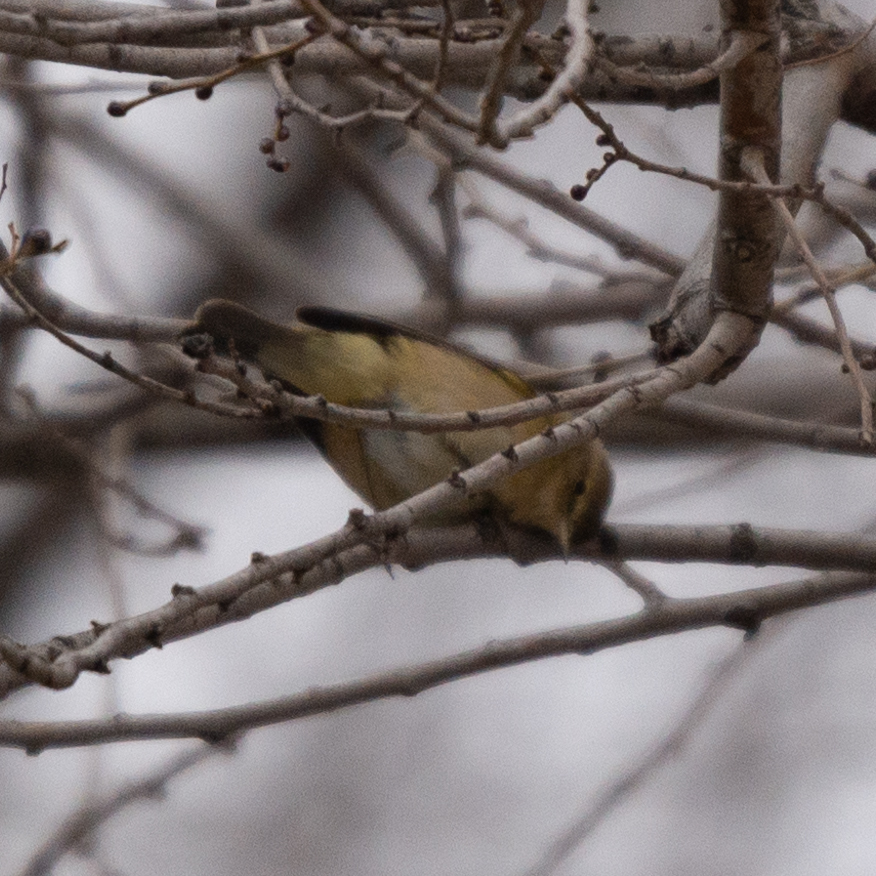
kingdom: Animalia
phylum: Chordata
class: Aves
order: Passeriformes
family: Phylloscopidae
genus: Phylloscopus
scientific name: Phylloscopus collybita
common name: Common chiffchaff
